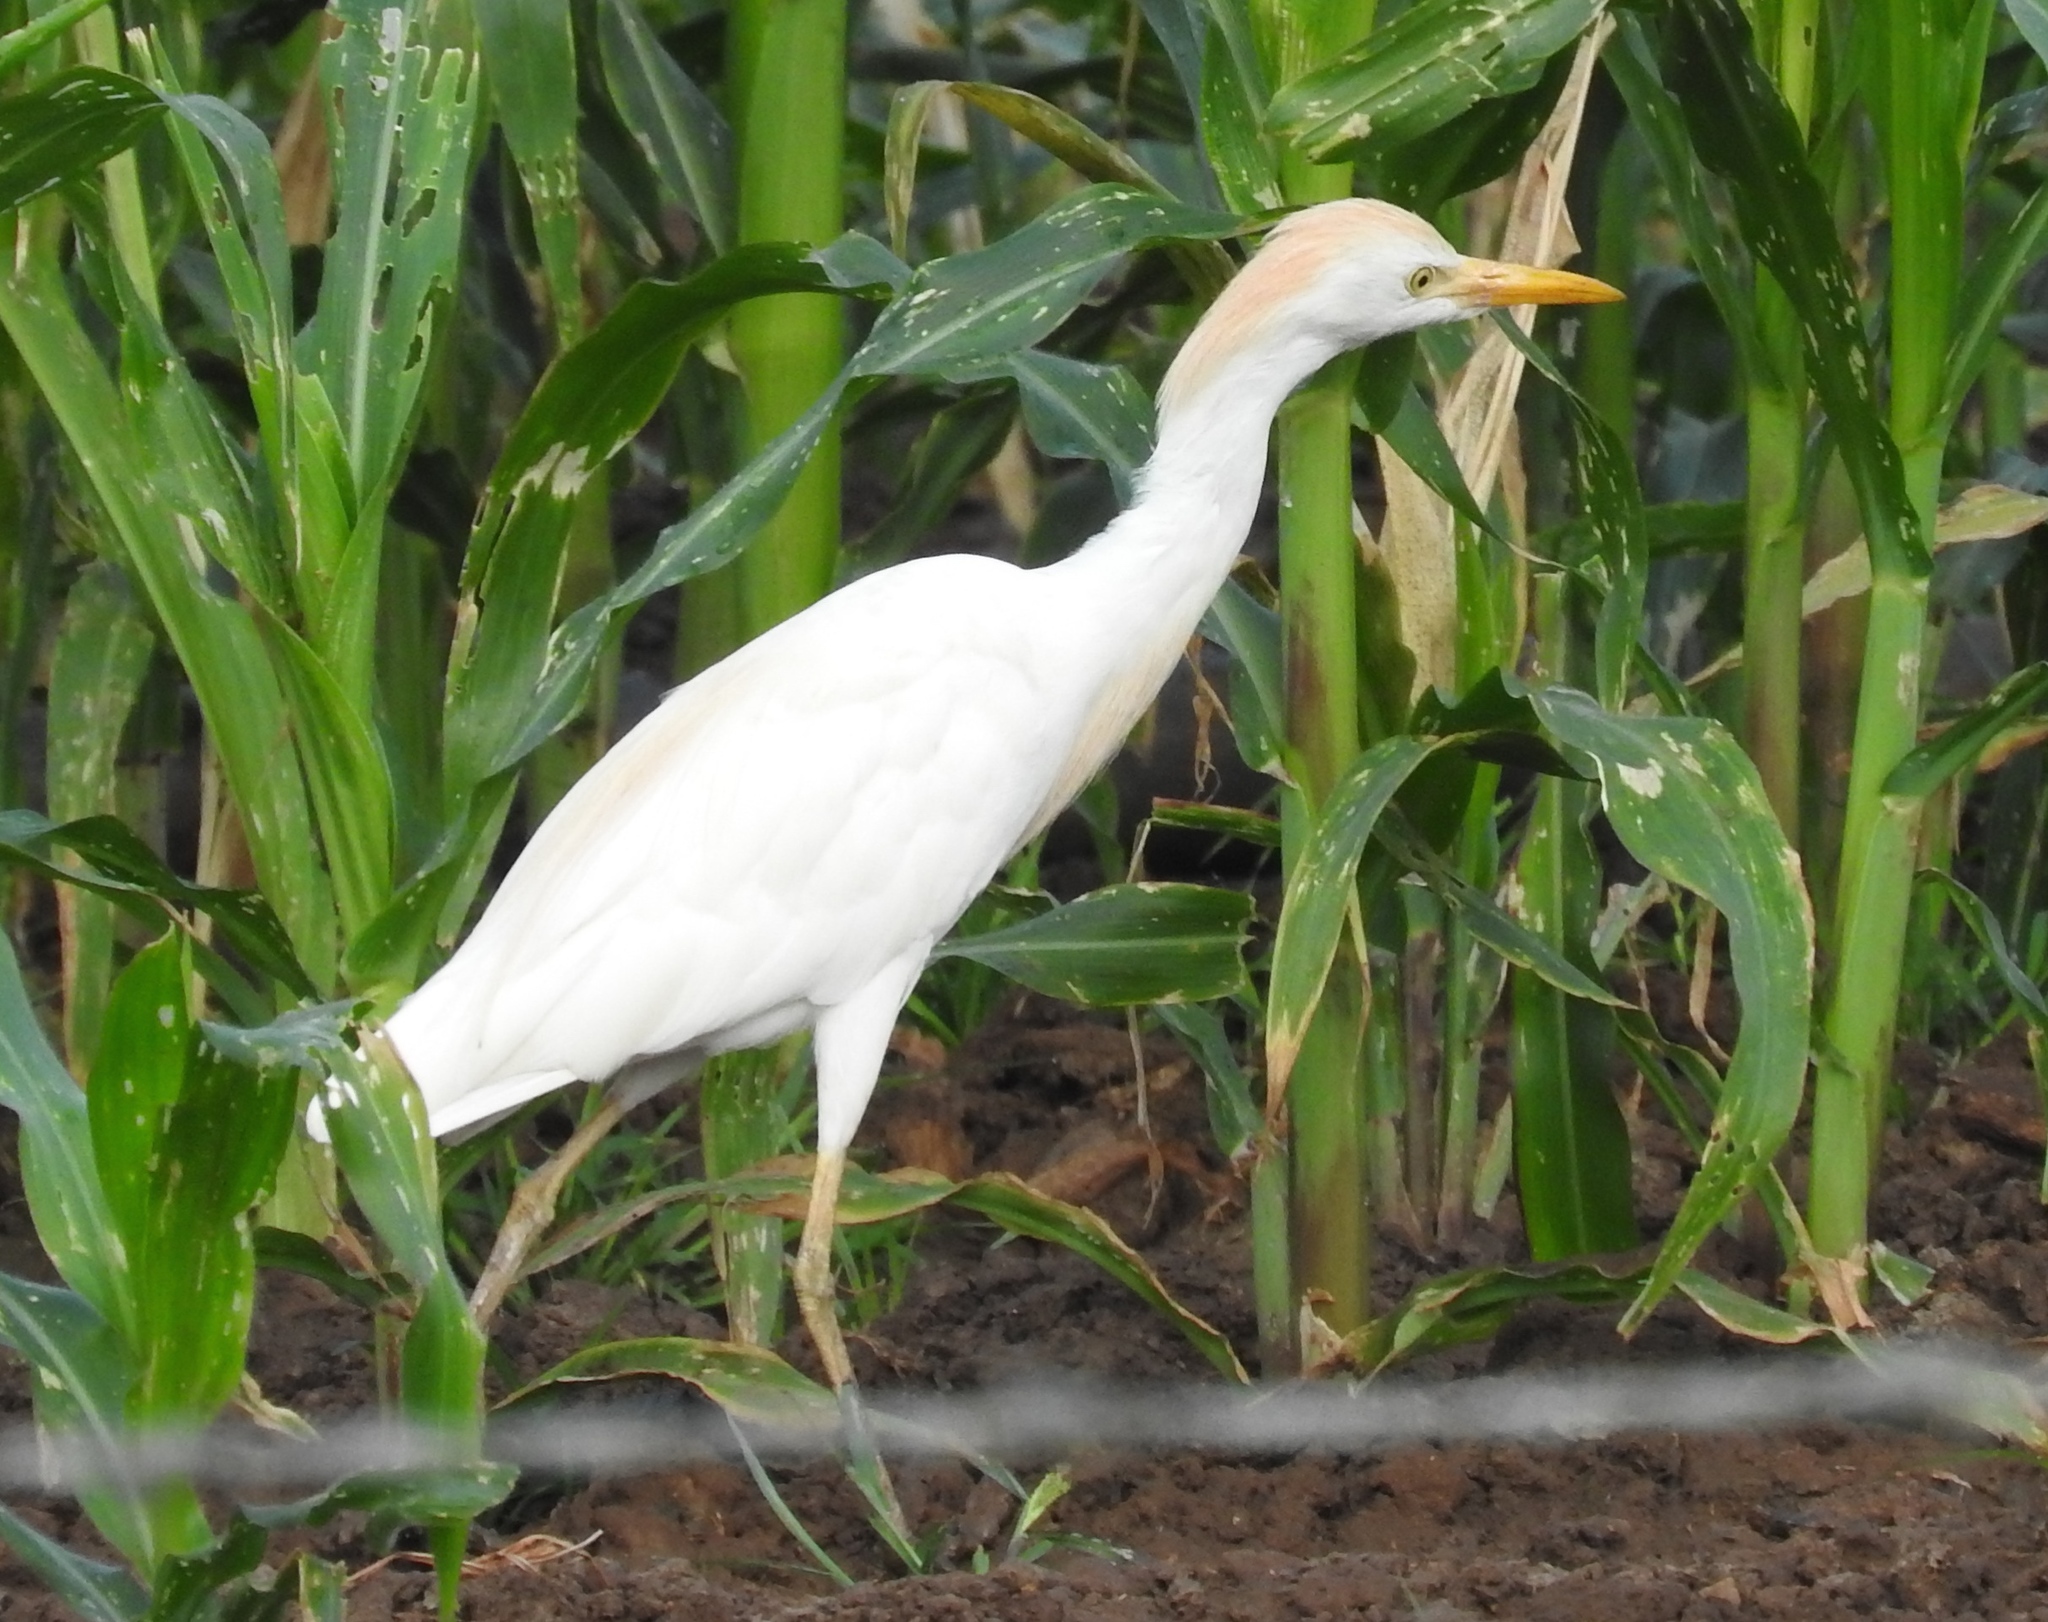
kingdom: Animalia
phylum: Chordata
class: Aves
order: Pelecaniformes
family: Ardeidae
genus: Bubulcus
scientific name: Bubulcus ibis
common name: Cattle egret
